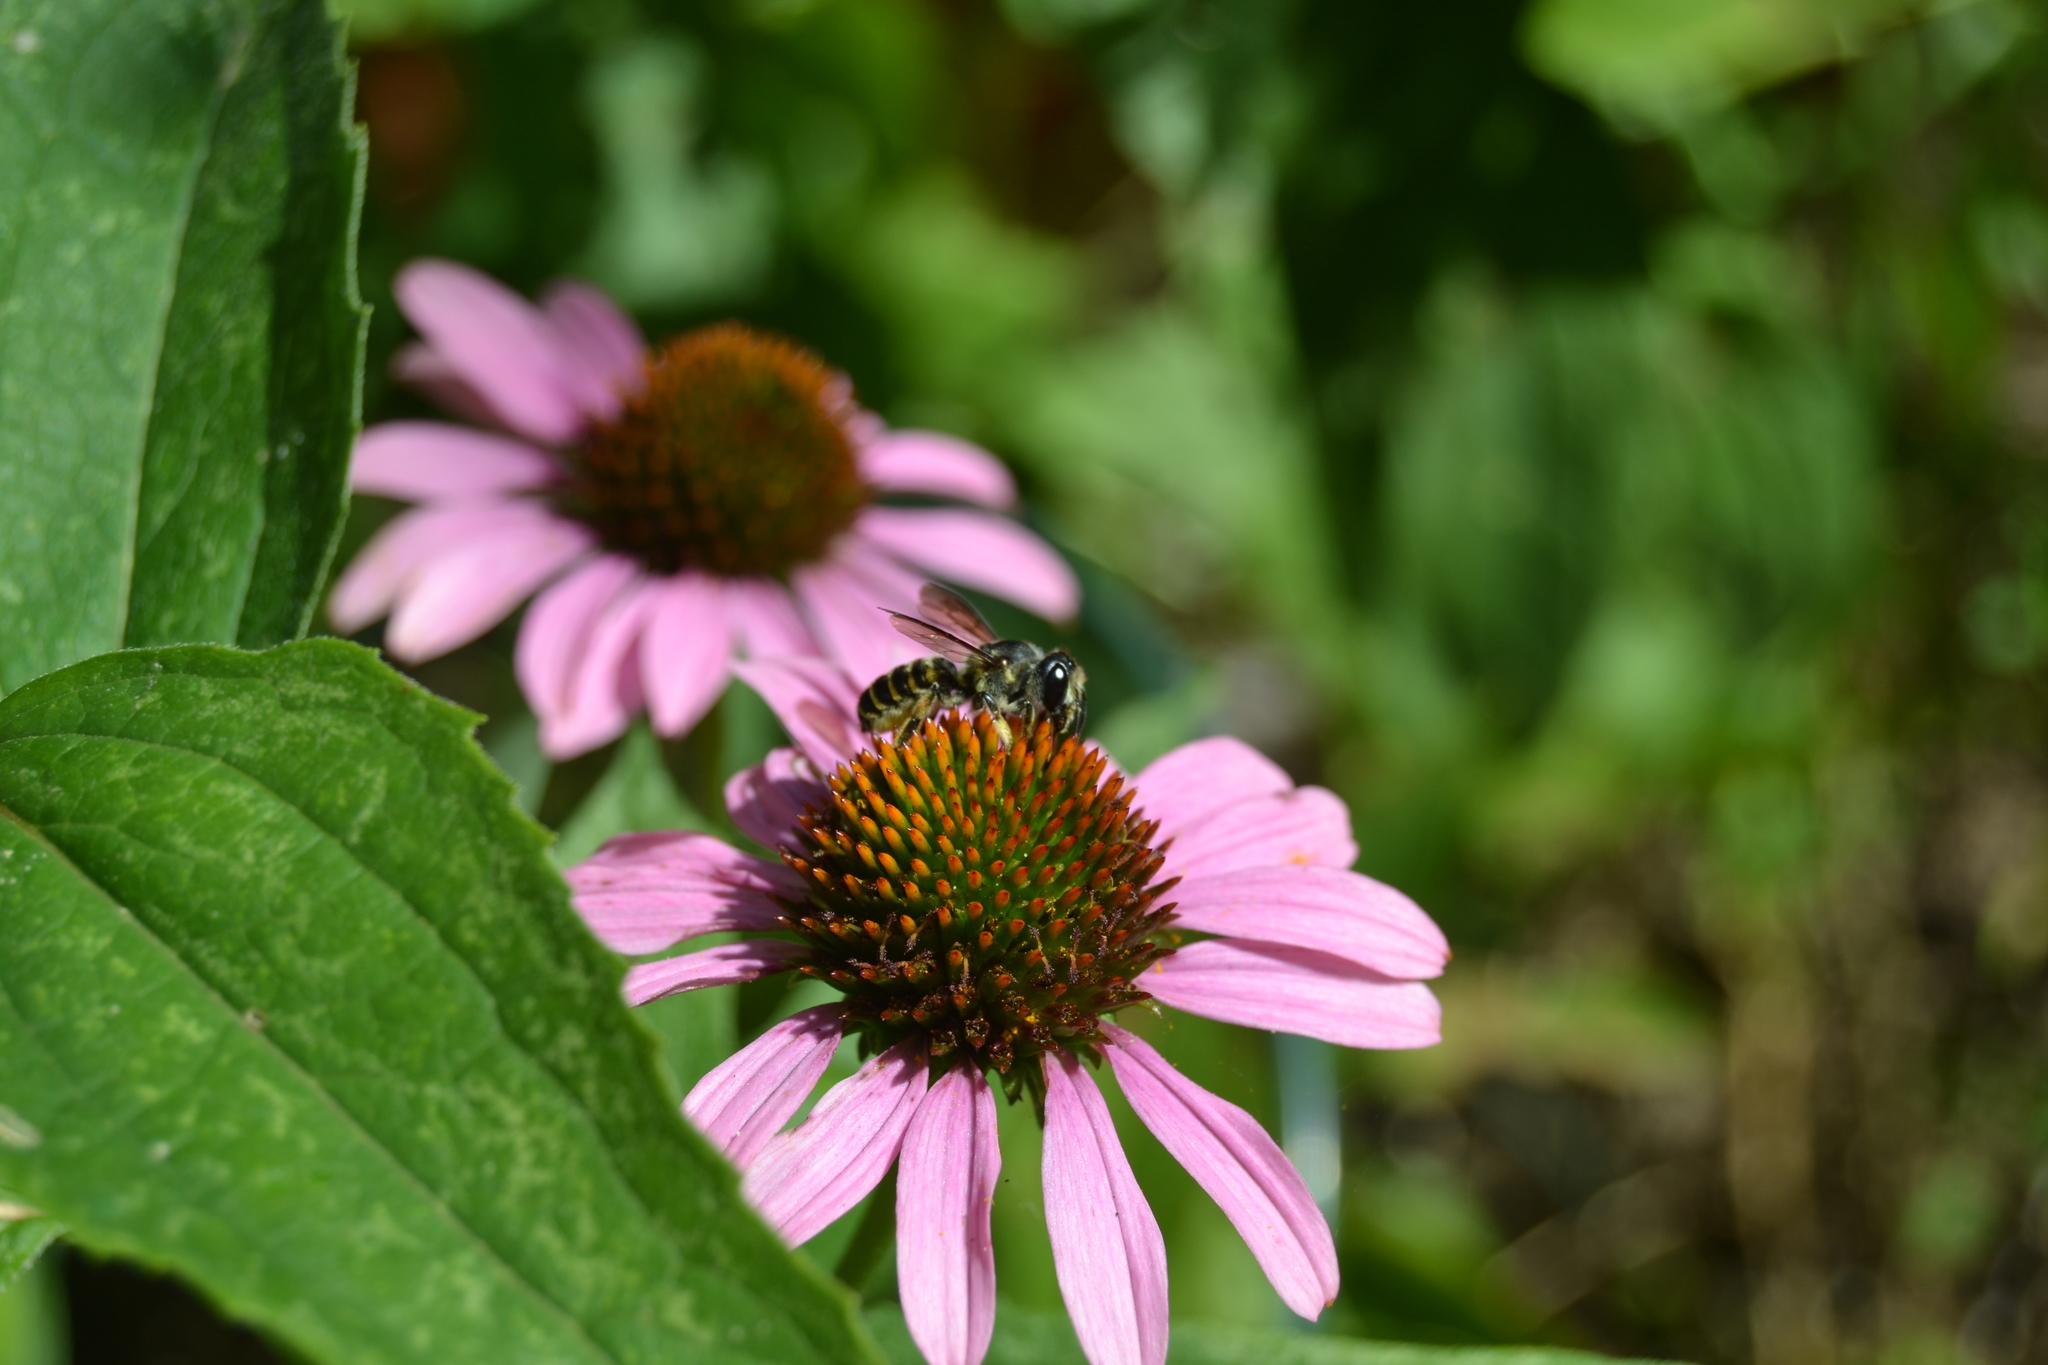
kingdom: Animalia
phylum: Arthropoda
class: Insecta
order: Hymenoptera
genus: Sayapis
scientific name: Sayapis
